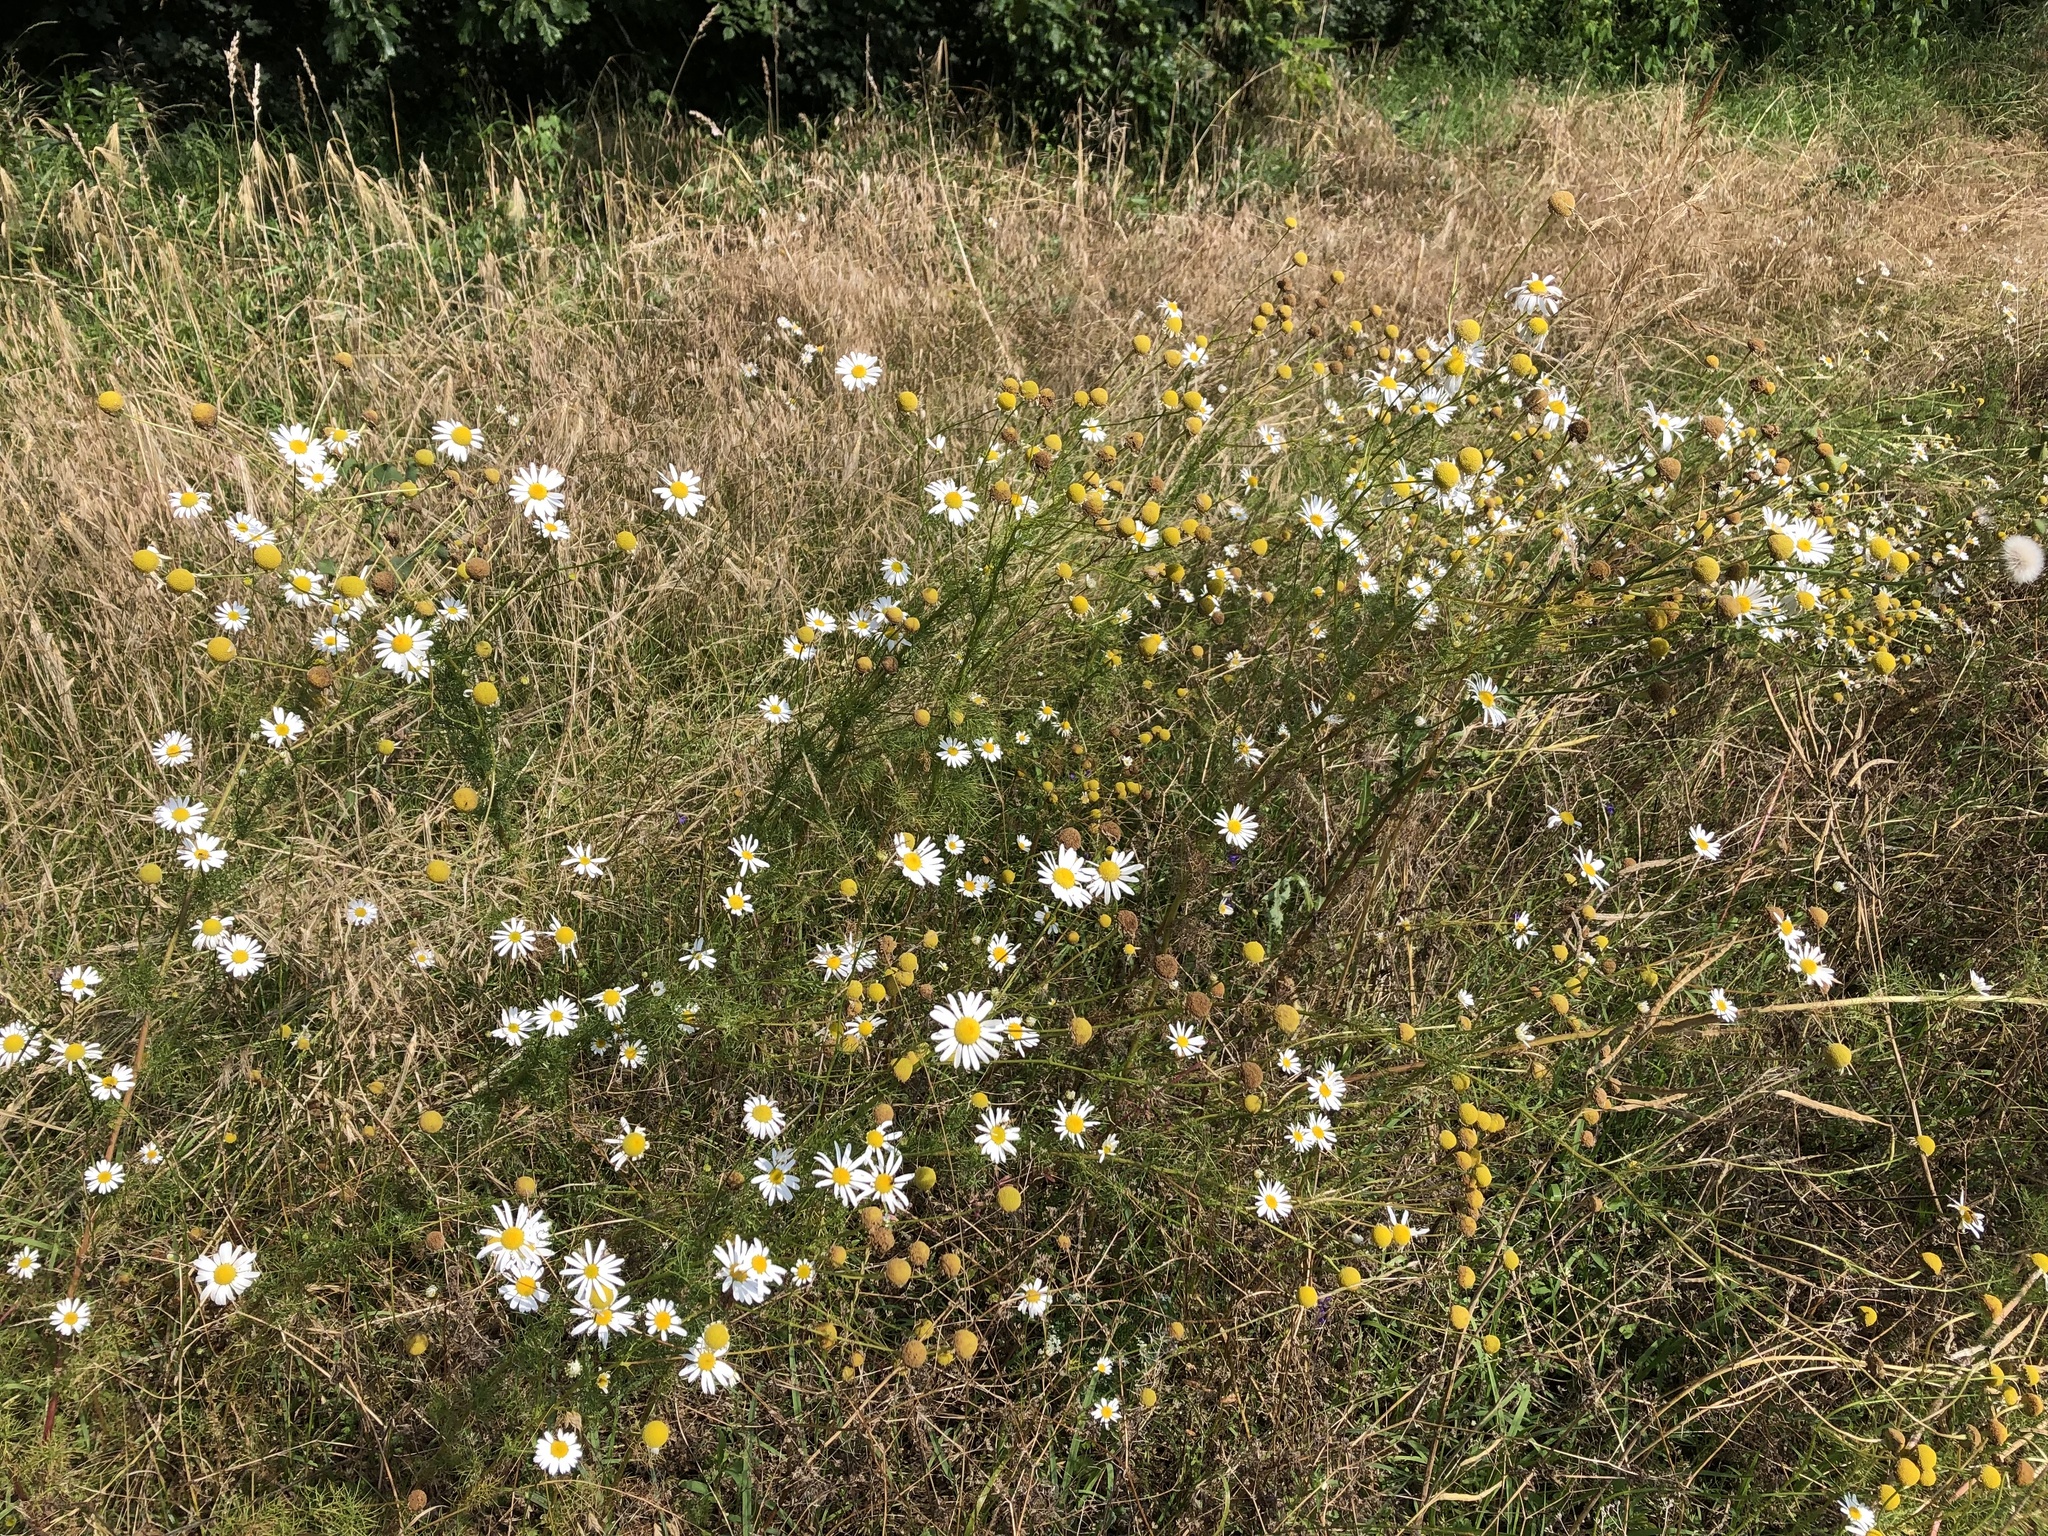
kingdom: Plantae
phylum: Tracheophyta
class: Magnoliopsida
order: Asterales
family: Asteraceae
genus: Tripleurospermum
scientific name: Tripleurospermum inodorum
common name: Scentless mayweed
